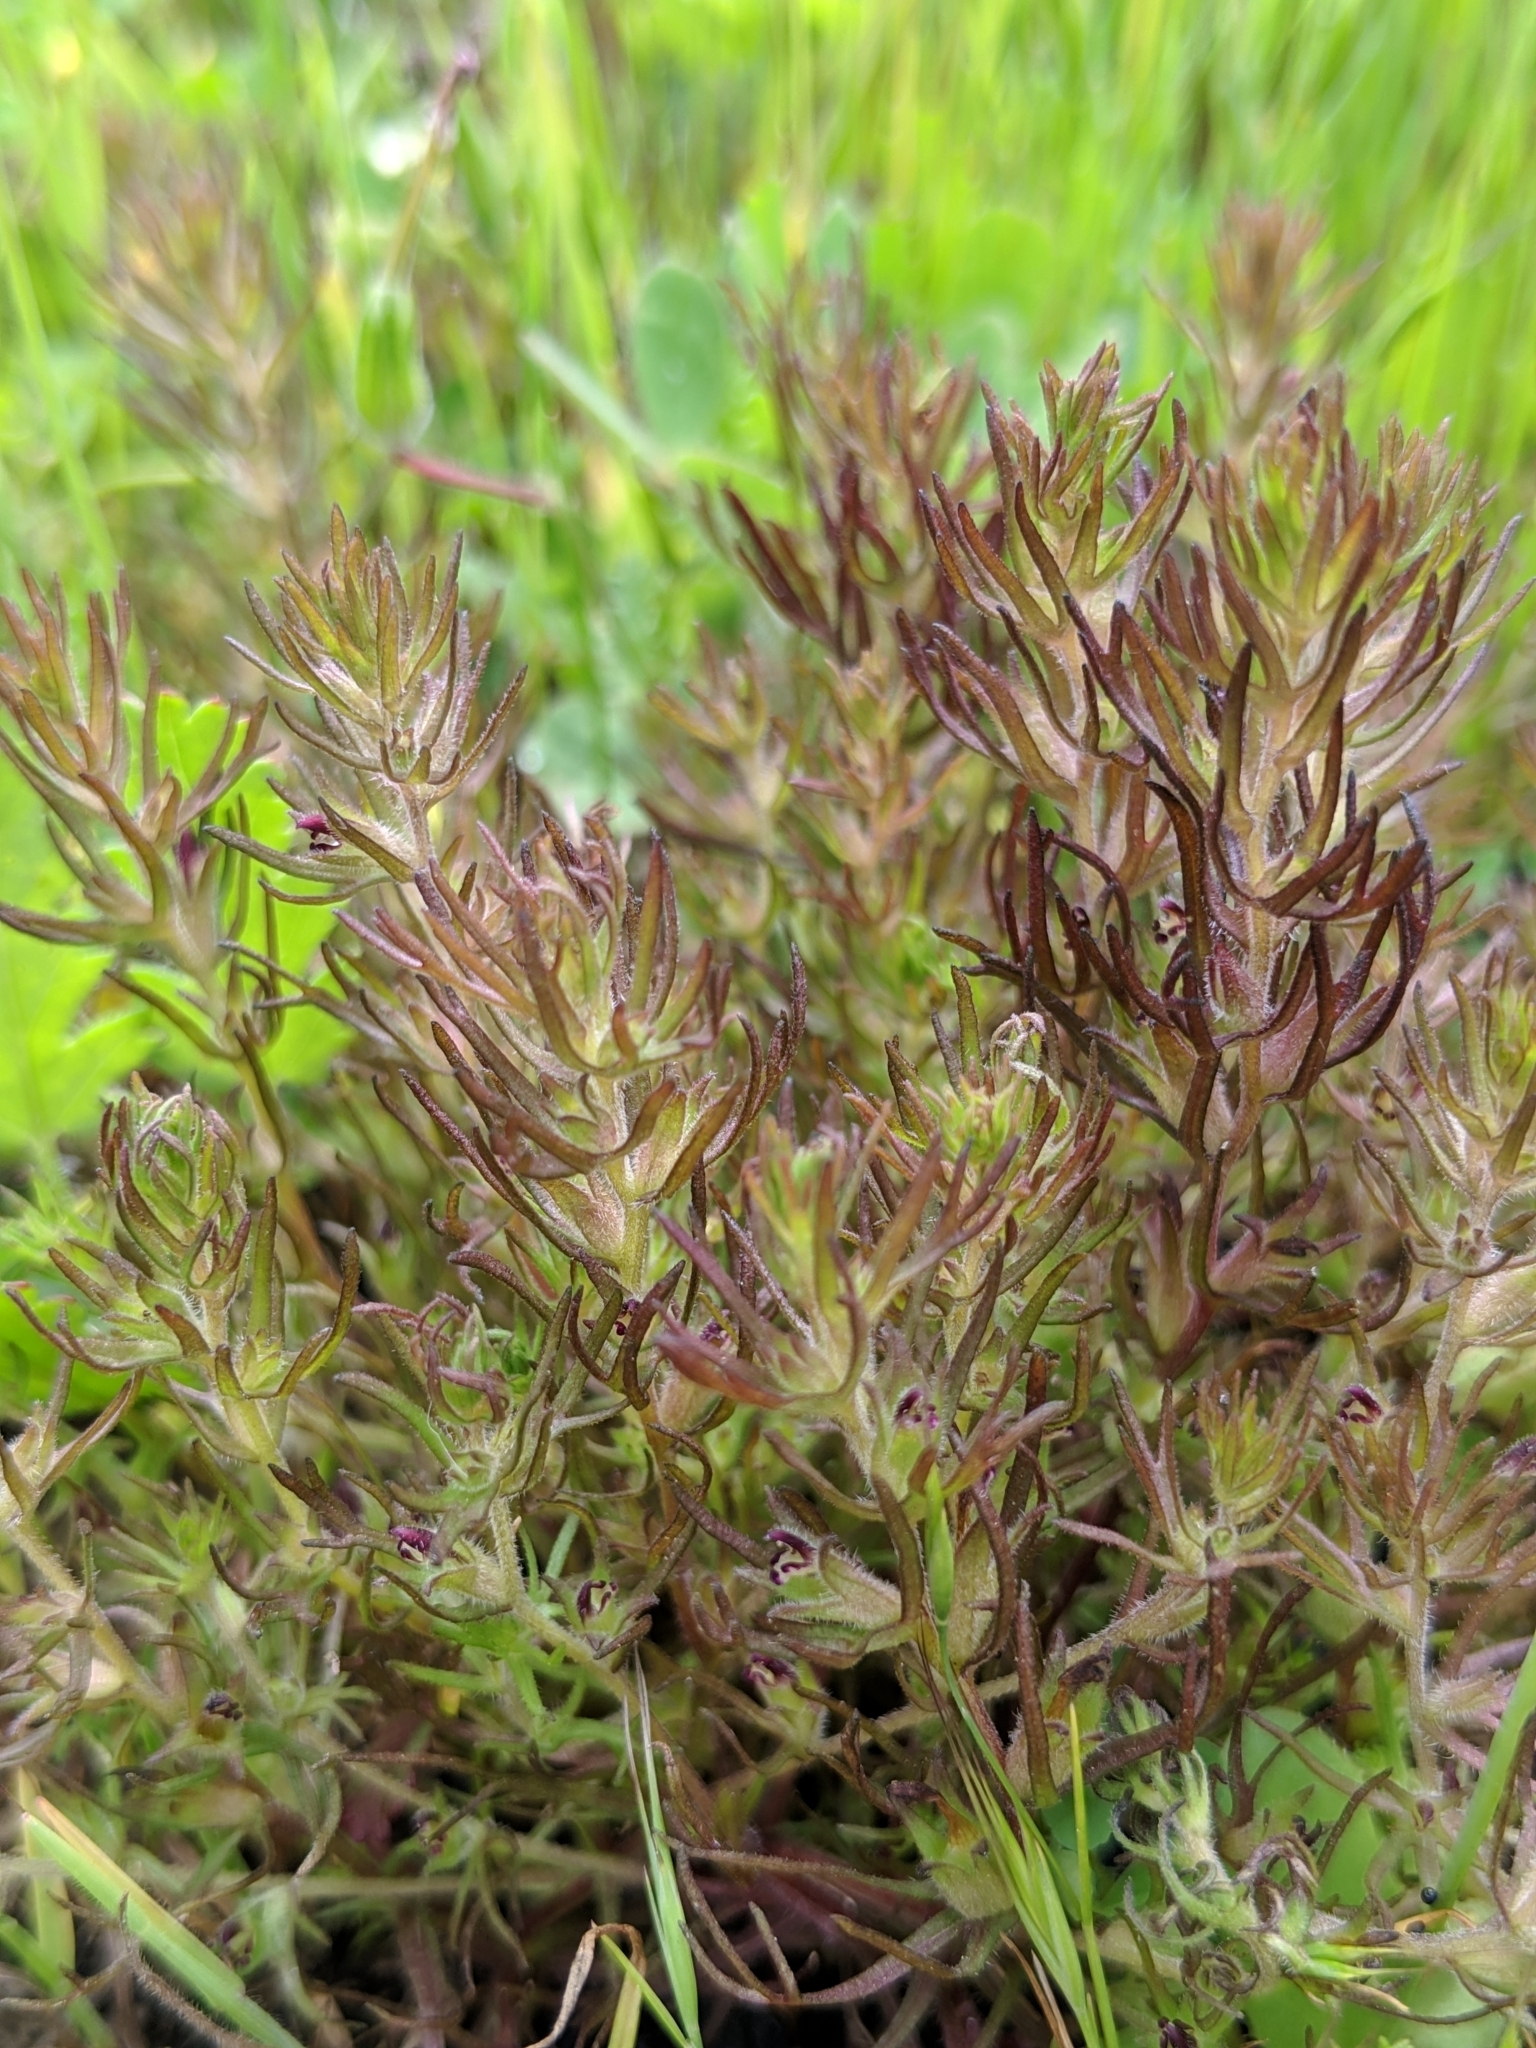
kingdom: Plantae
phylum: Tracheophyta
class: Magnoliopsida
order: Lamiales
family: Orobanchaceae
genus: Triphysaria
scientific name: Triphysaria pusilla
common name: Dwarf false owl-clover
